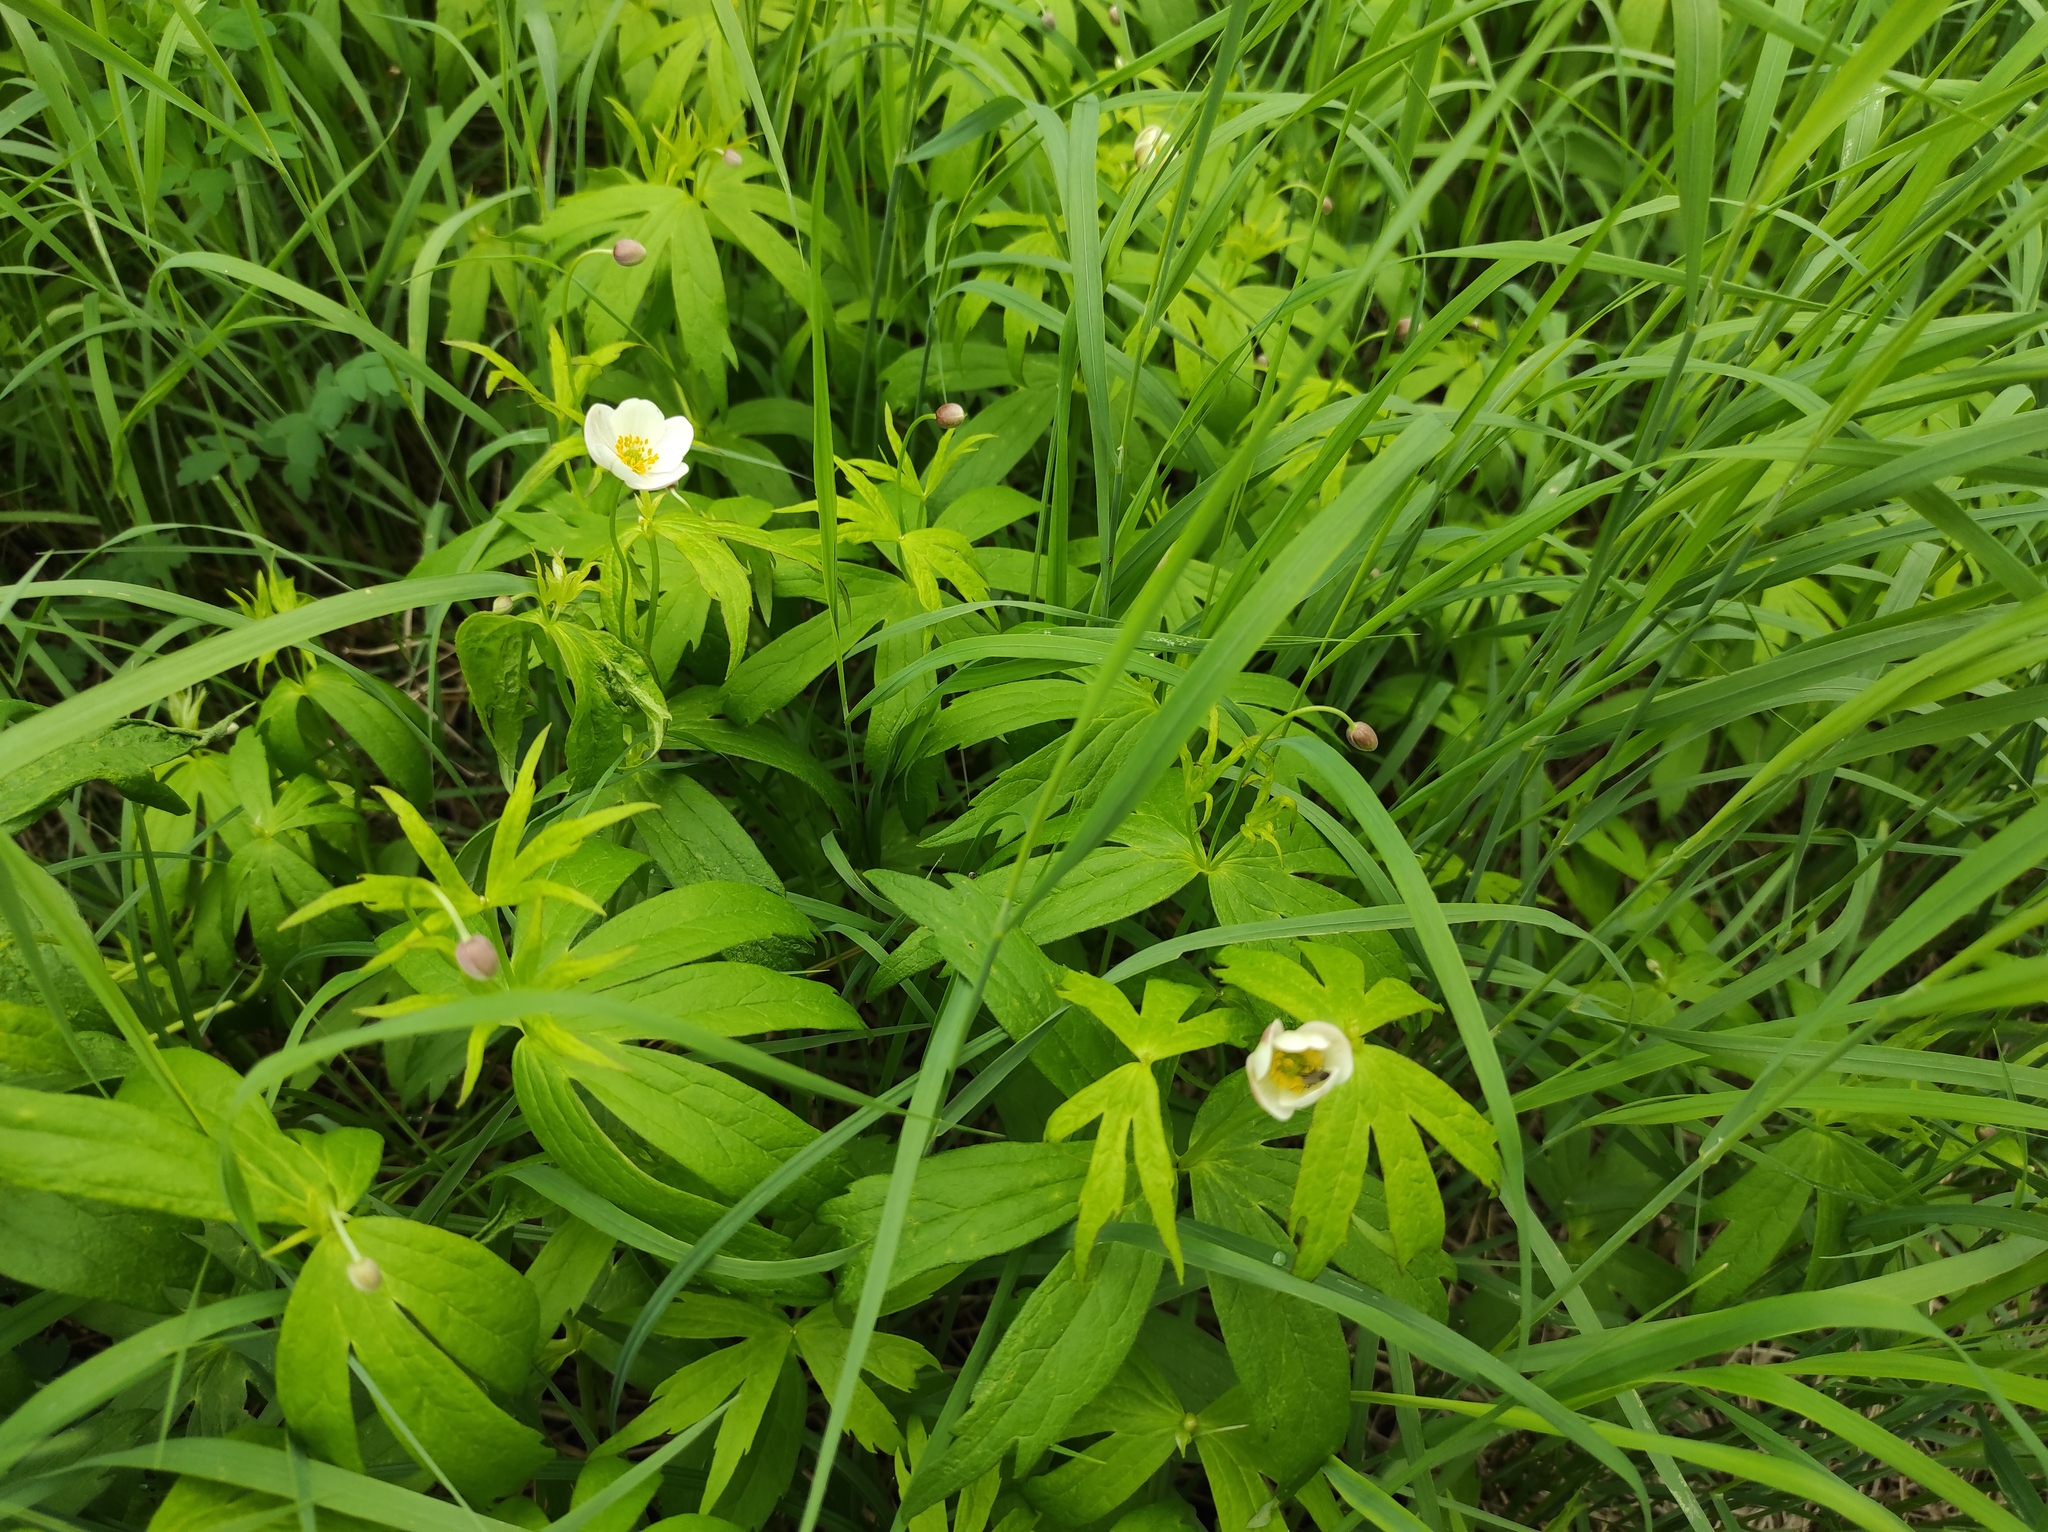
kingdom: Plantae
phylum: Tracheophyta
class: Magnoliopsida
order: Ranunculales
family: Ranunculaceae
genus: Anemonastrum
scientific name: Anemonastrum dichotomum
